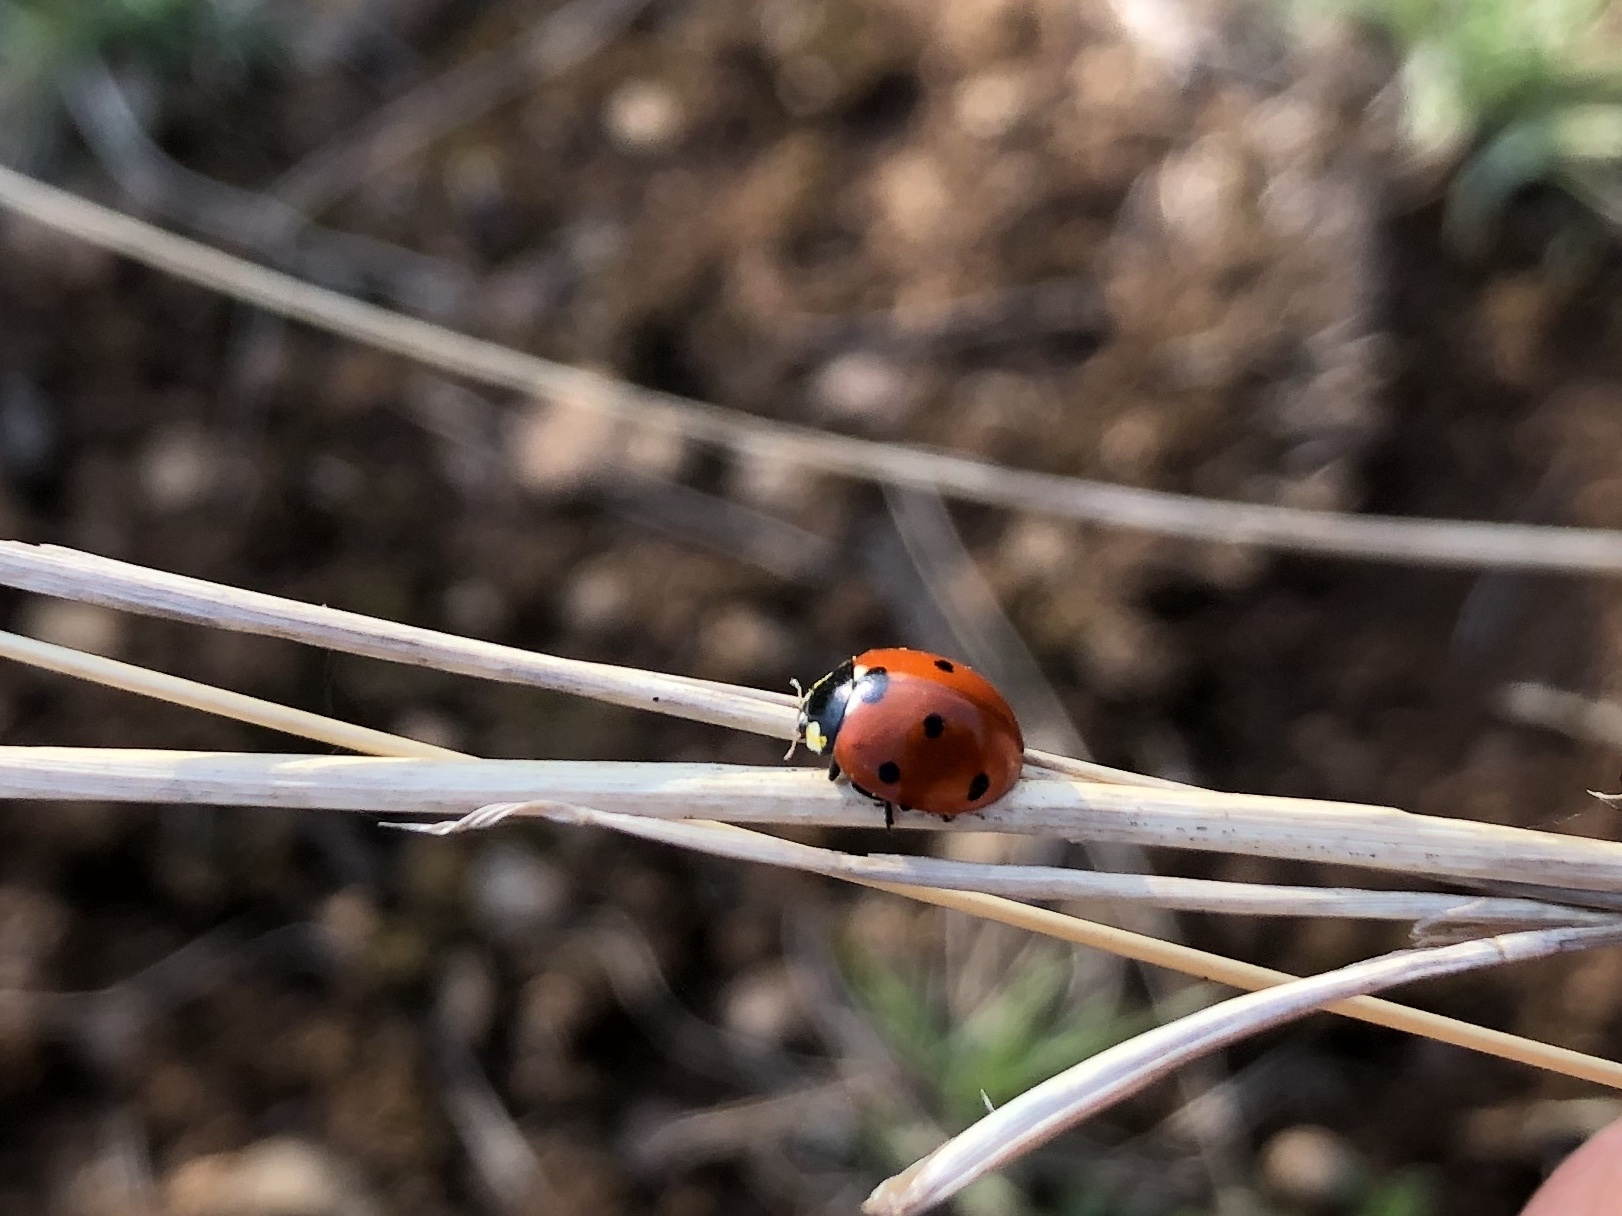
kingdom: Animalia
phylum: Arthropoda
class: Insecta
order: Coleoptera
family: Coccinellidae
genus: Coccinella
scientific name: Coccinella septempunctata
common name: Sevenspotted lady beetle
